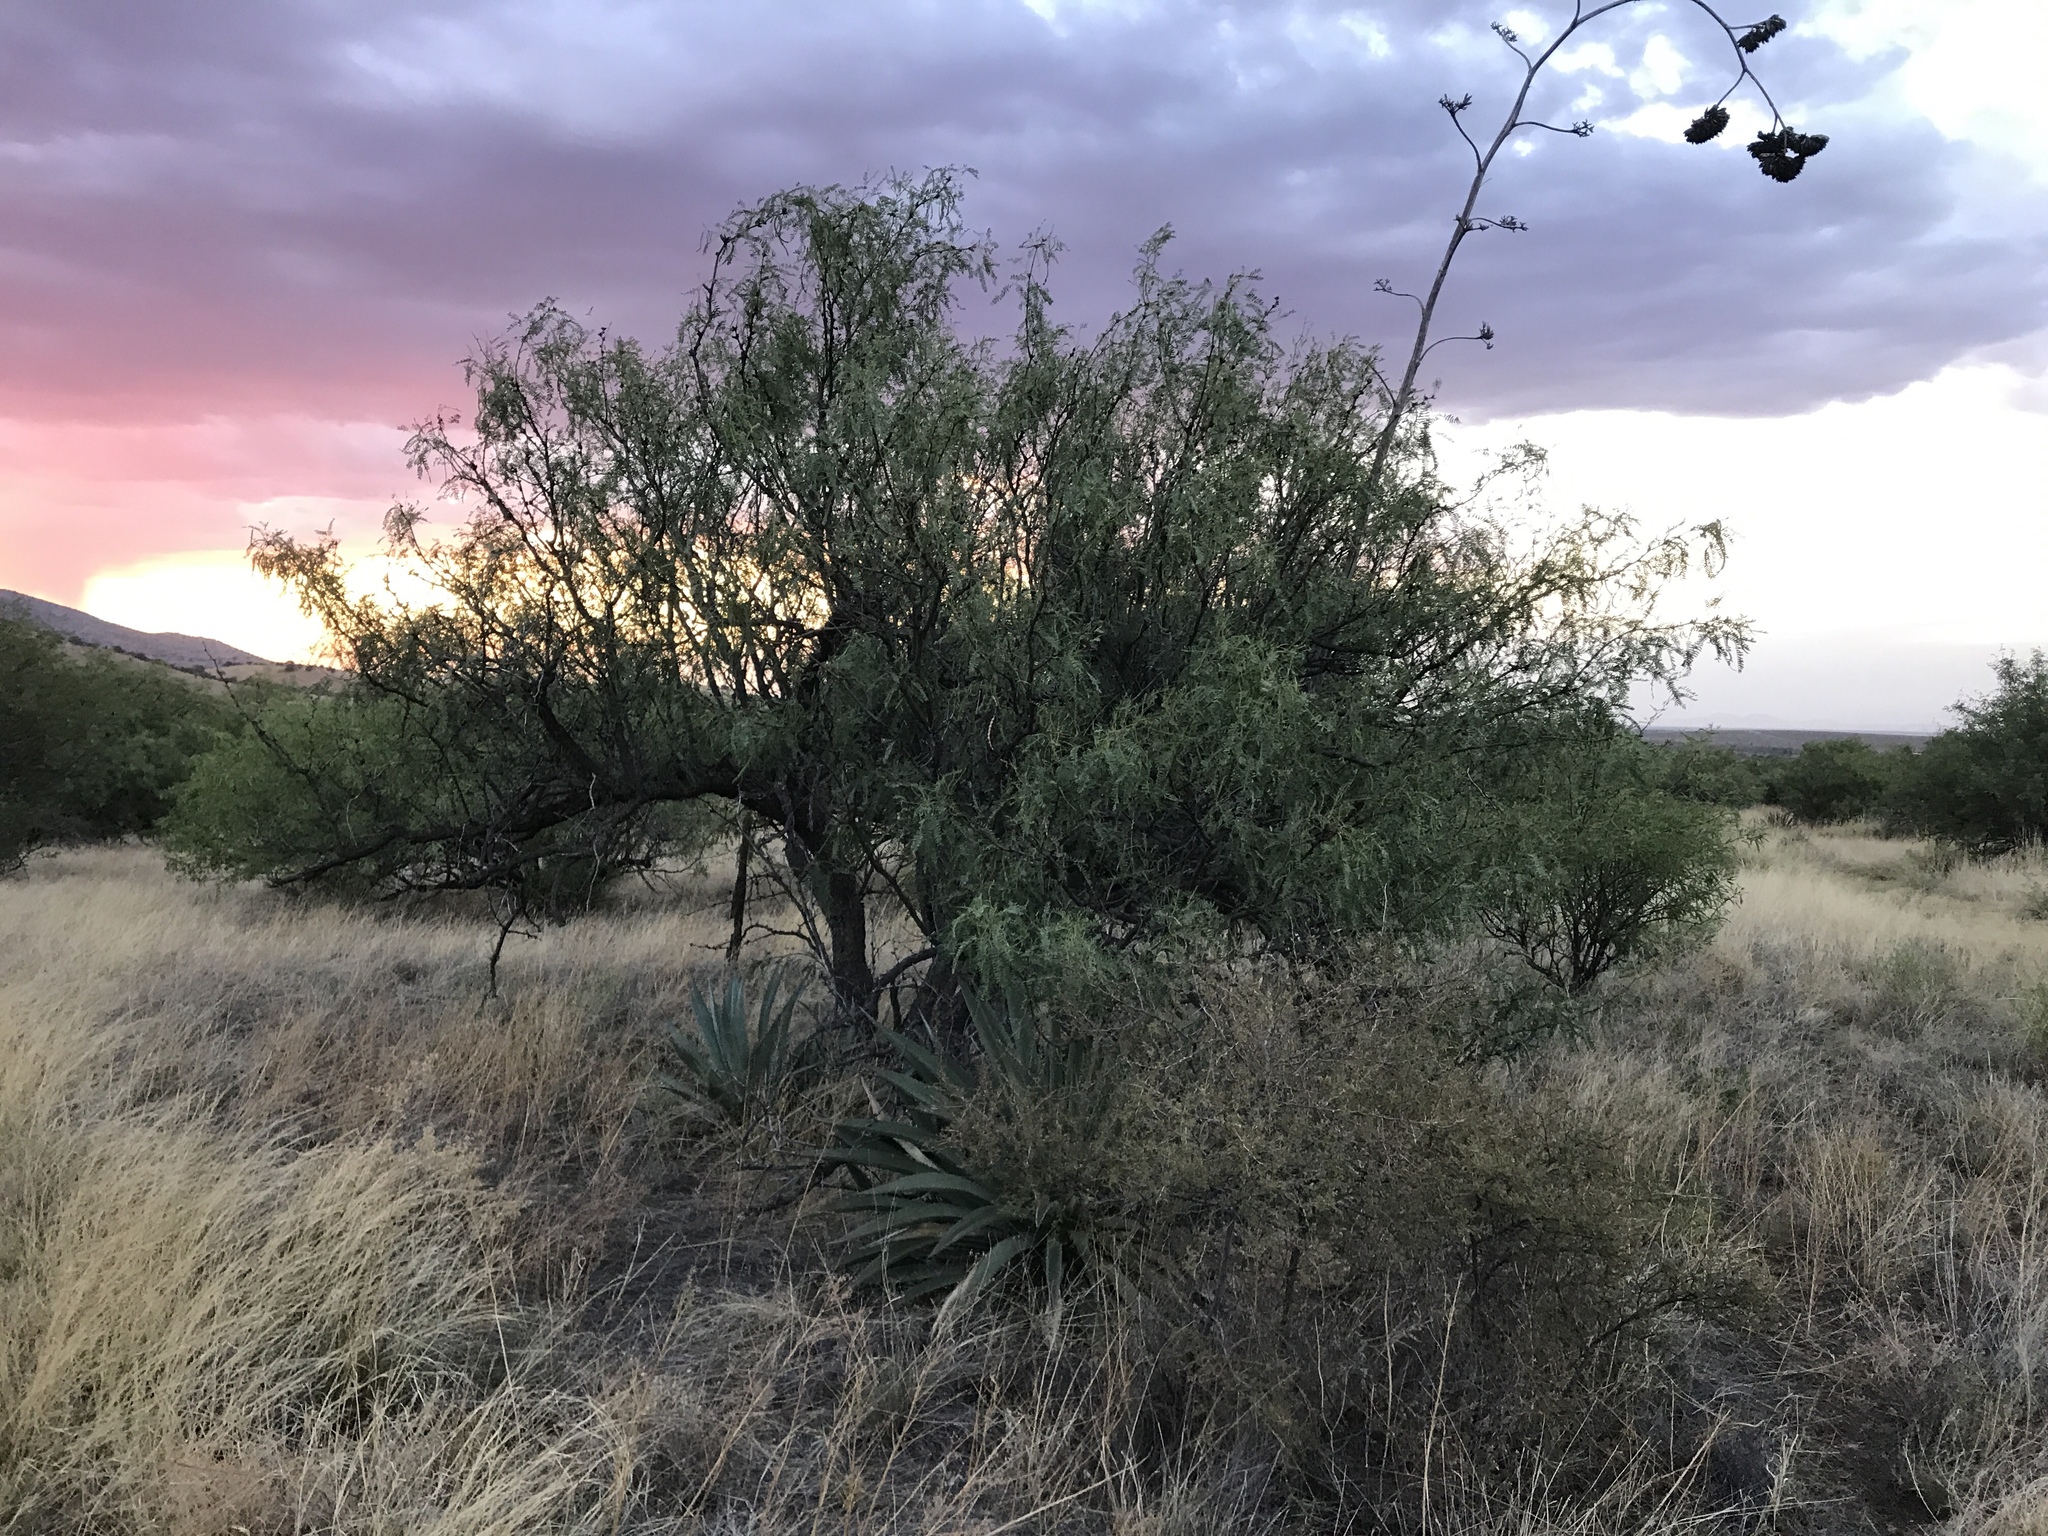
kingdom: Plantae
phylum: Tracheophyta
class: Magnoliopsida
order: Fabales
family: Fabaceae
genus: Prosopis
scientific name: Prosopis velutina
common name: Velvet mesquite
